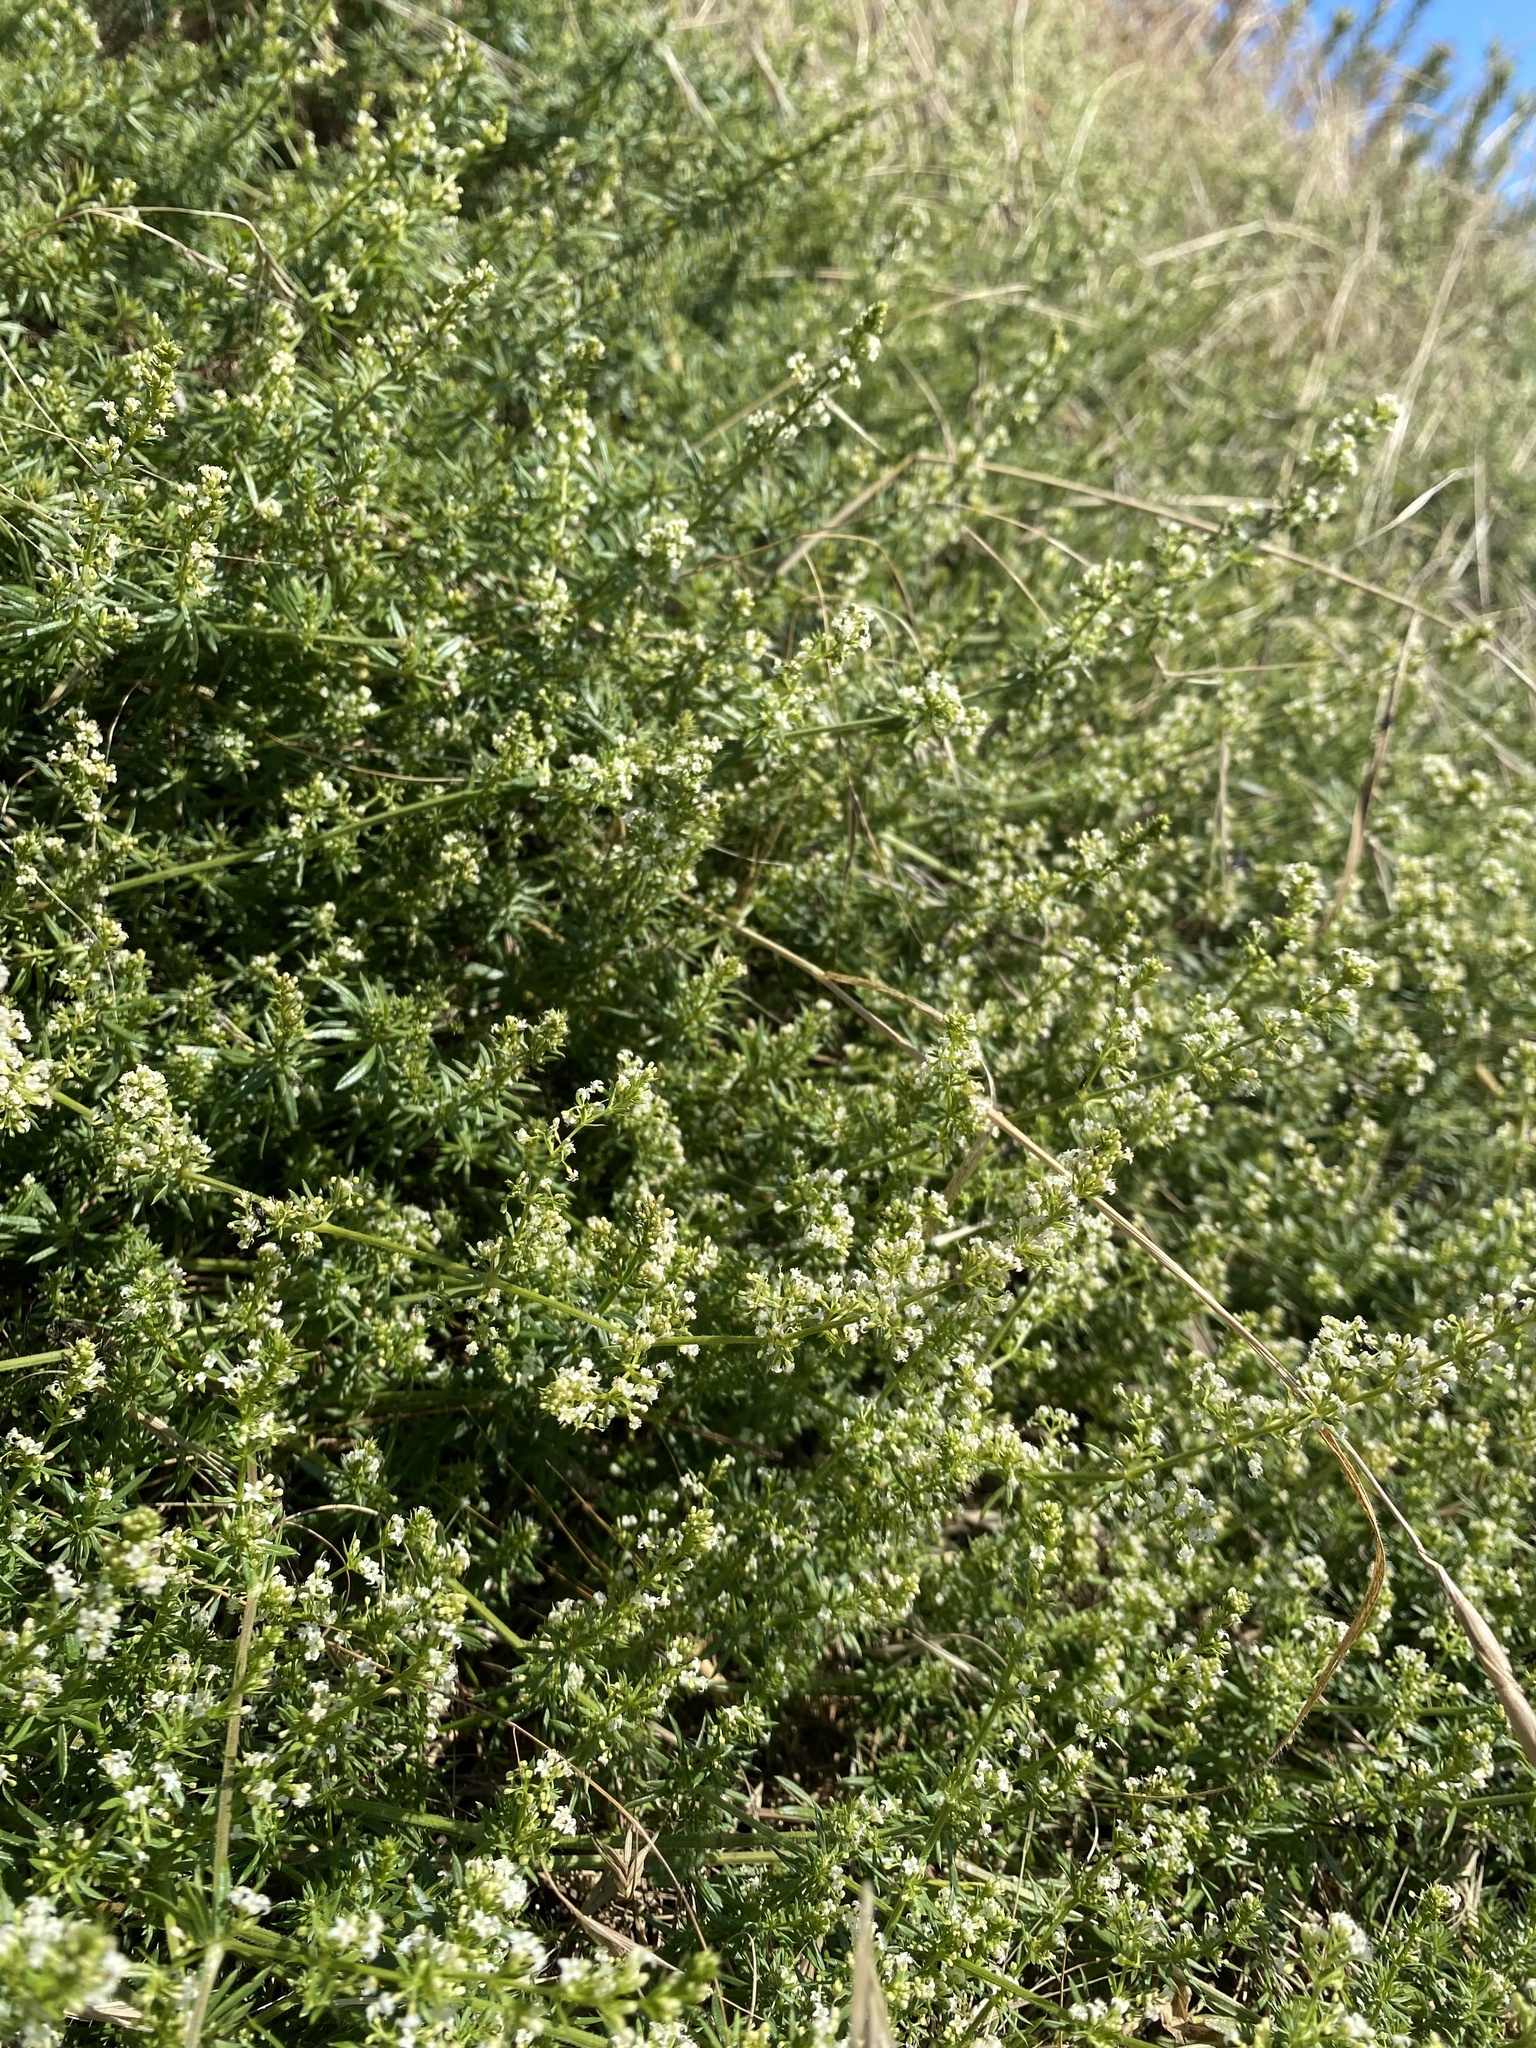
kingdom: Plantae
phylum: Tracheophyta
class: Magnoliopsida
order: Gentianales
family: Rubiaceae
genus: Galium
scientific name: Galium humifusum
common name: Spreading bedstraw
